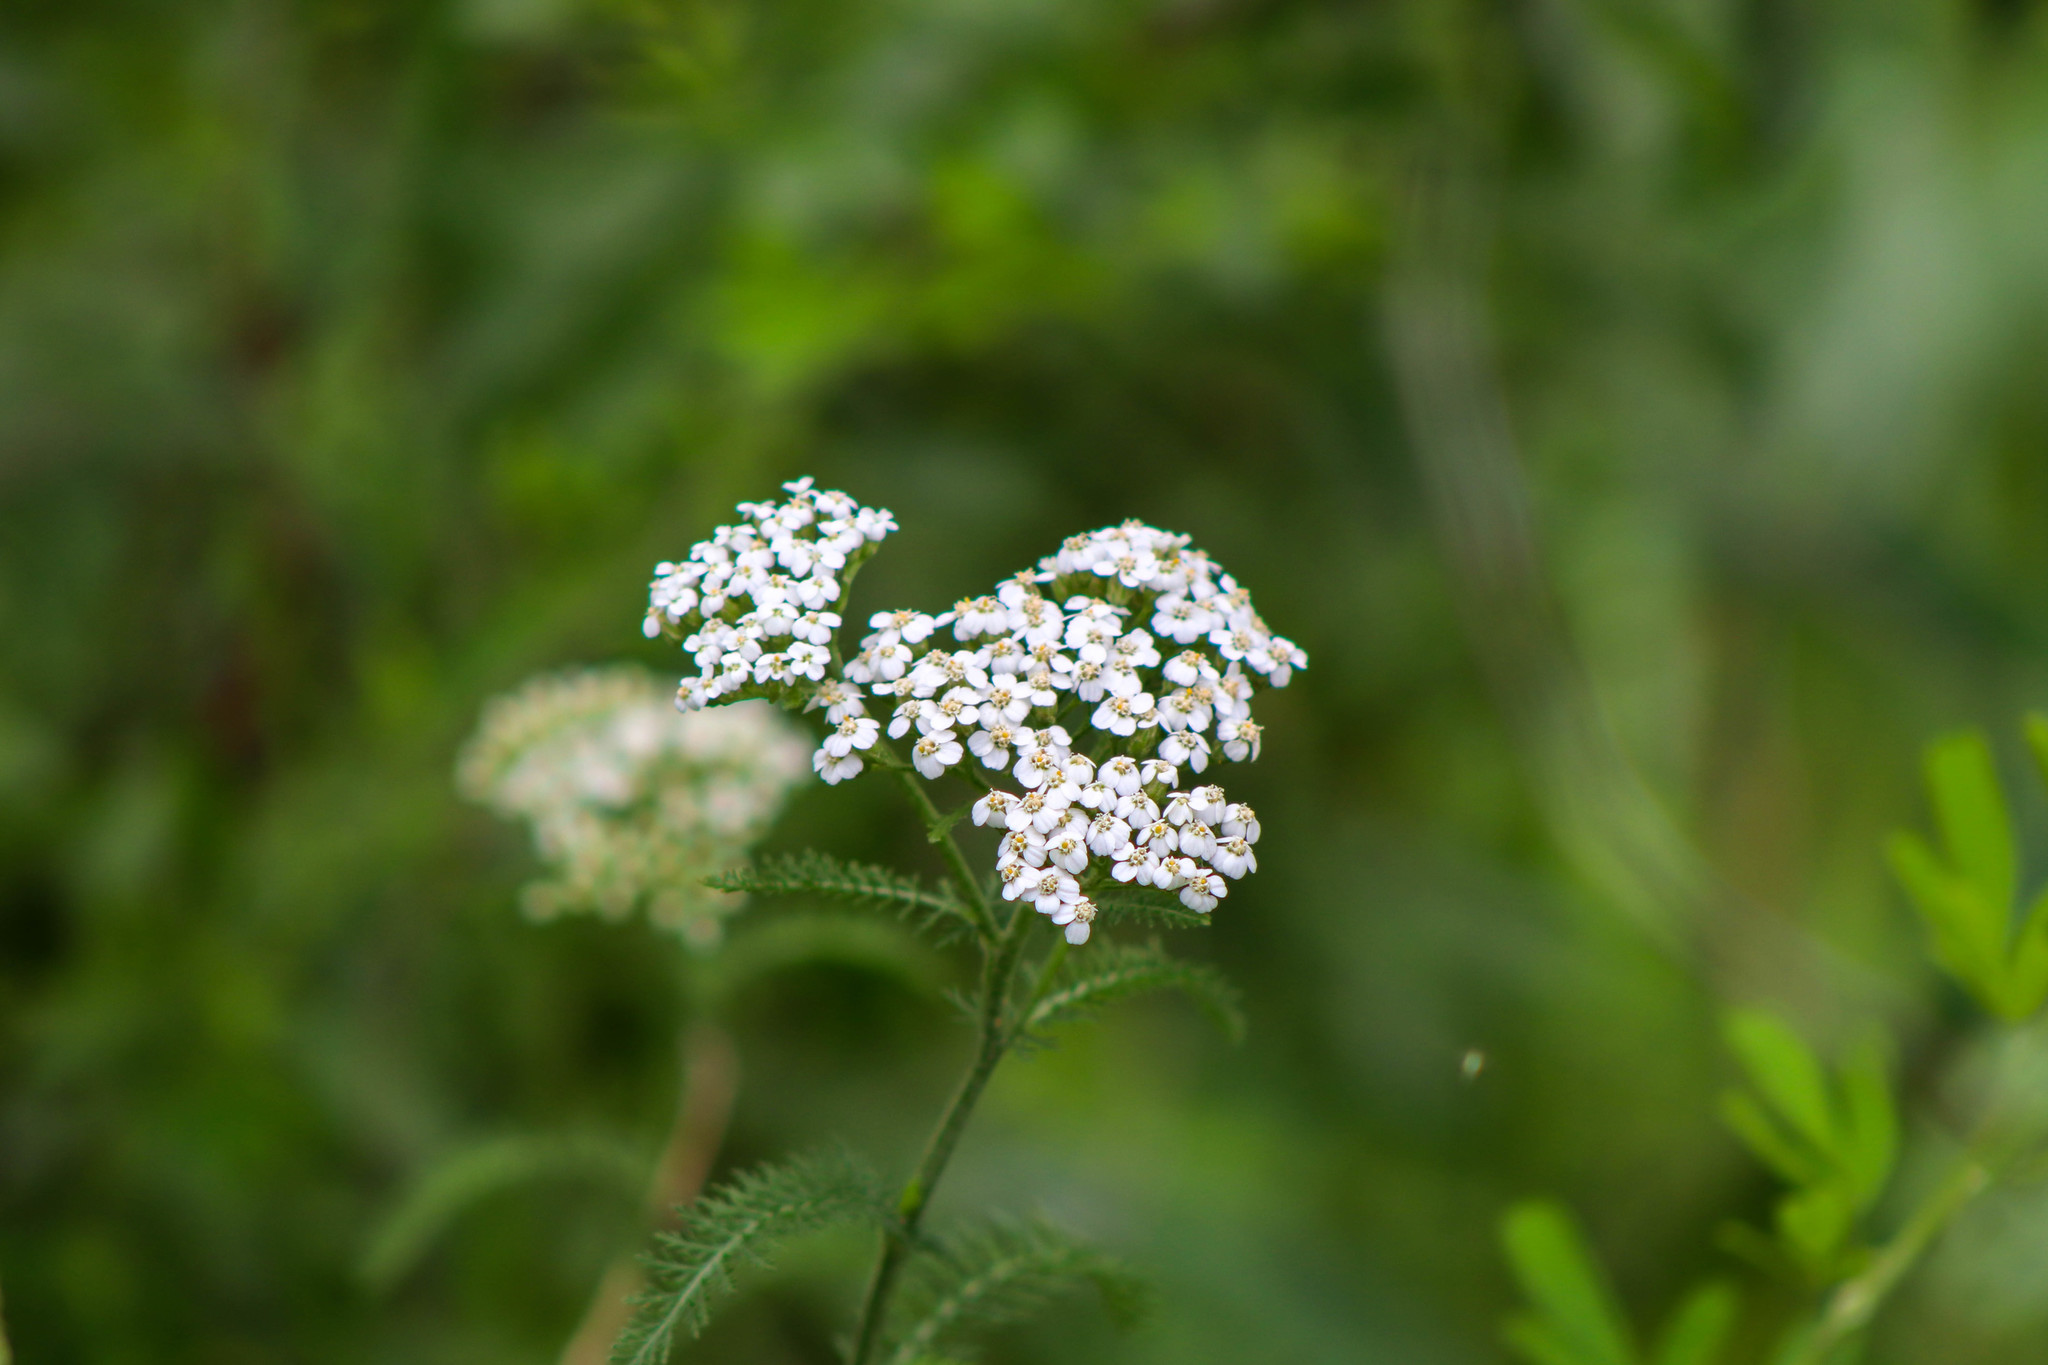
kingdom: Plantae
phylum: Tracheophyta
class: Magnoliopsida
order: Asterales
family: Asteraceae
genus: Achillea
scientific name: Achillea millefolium
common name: Yarrow
